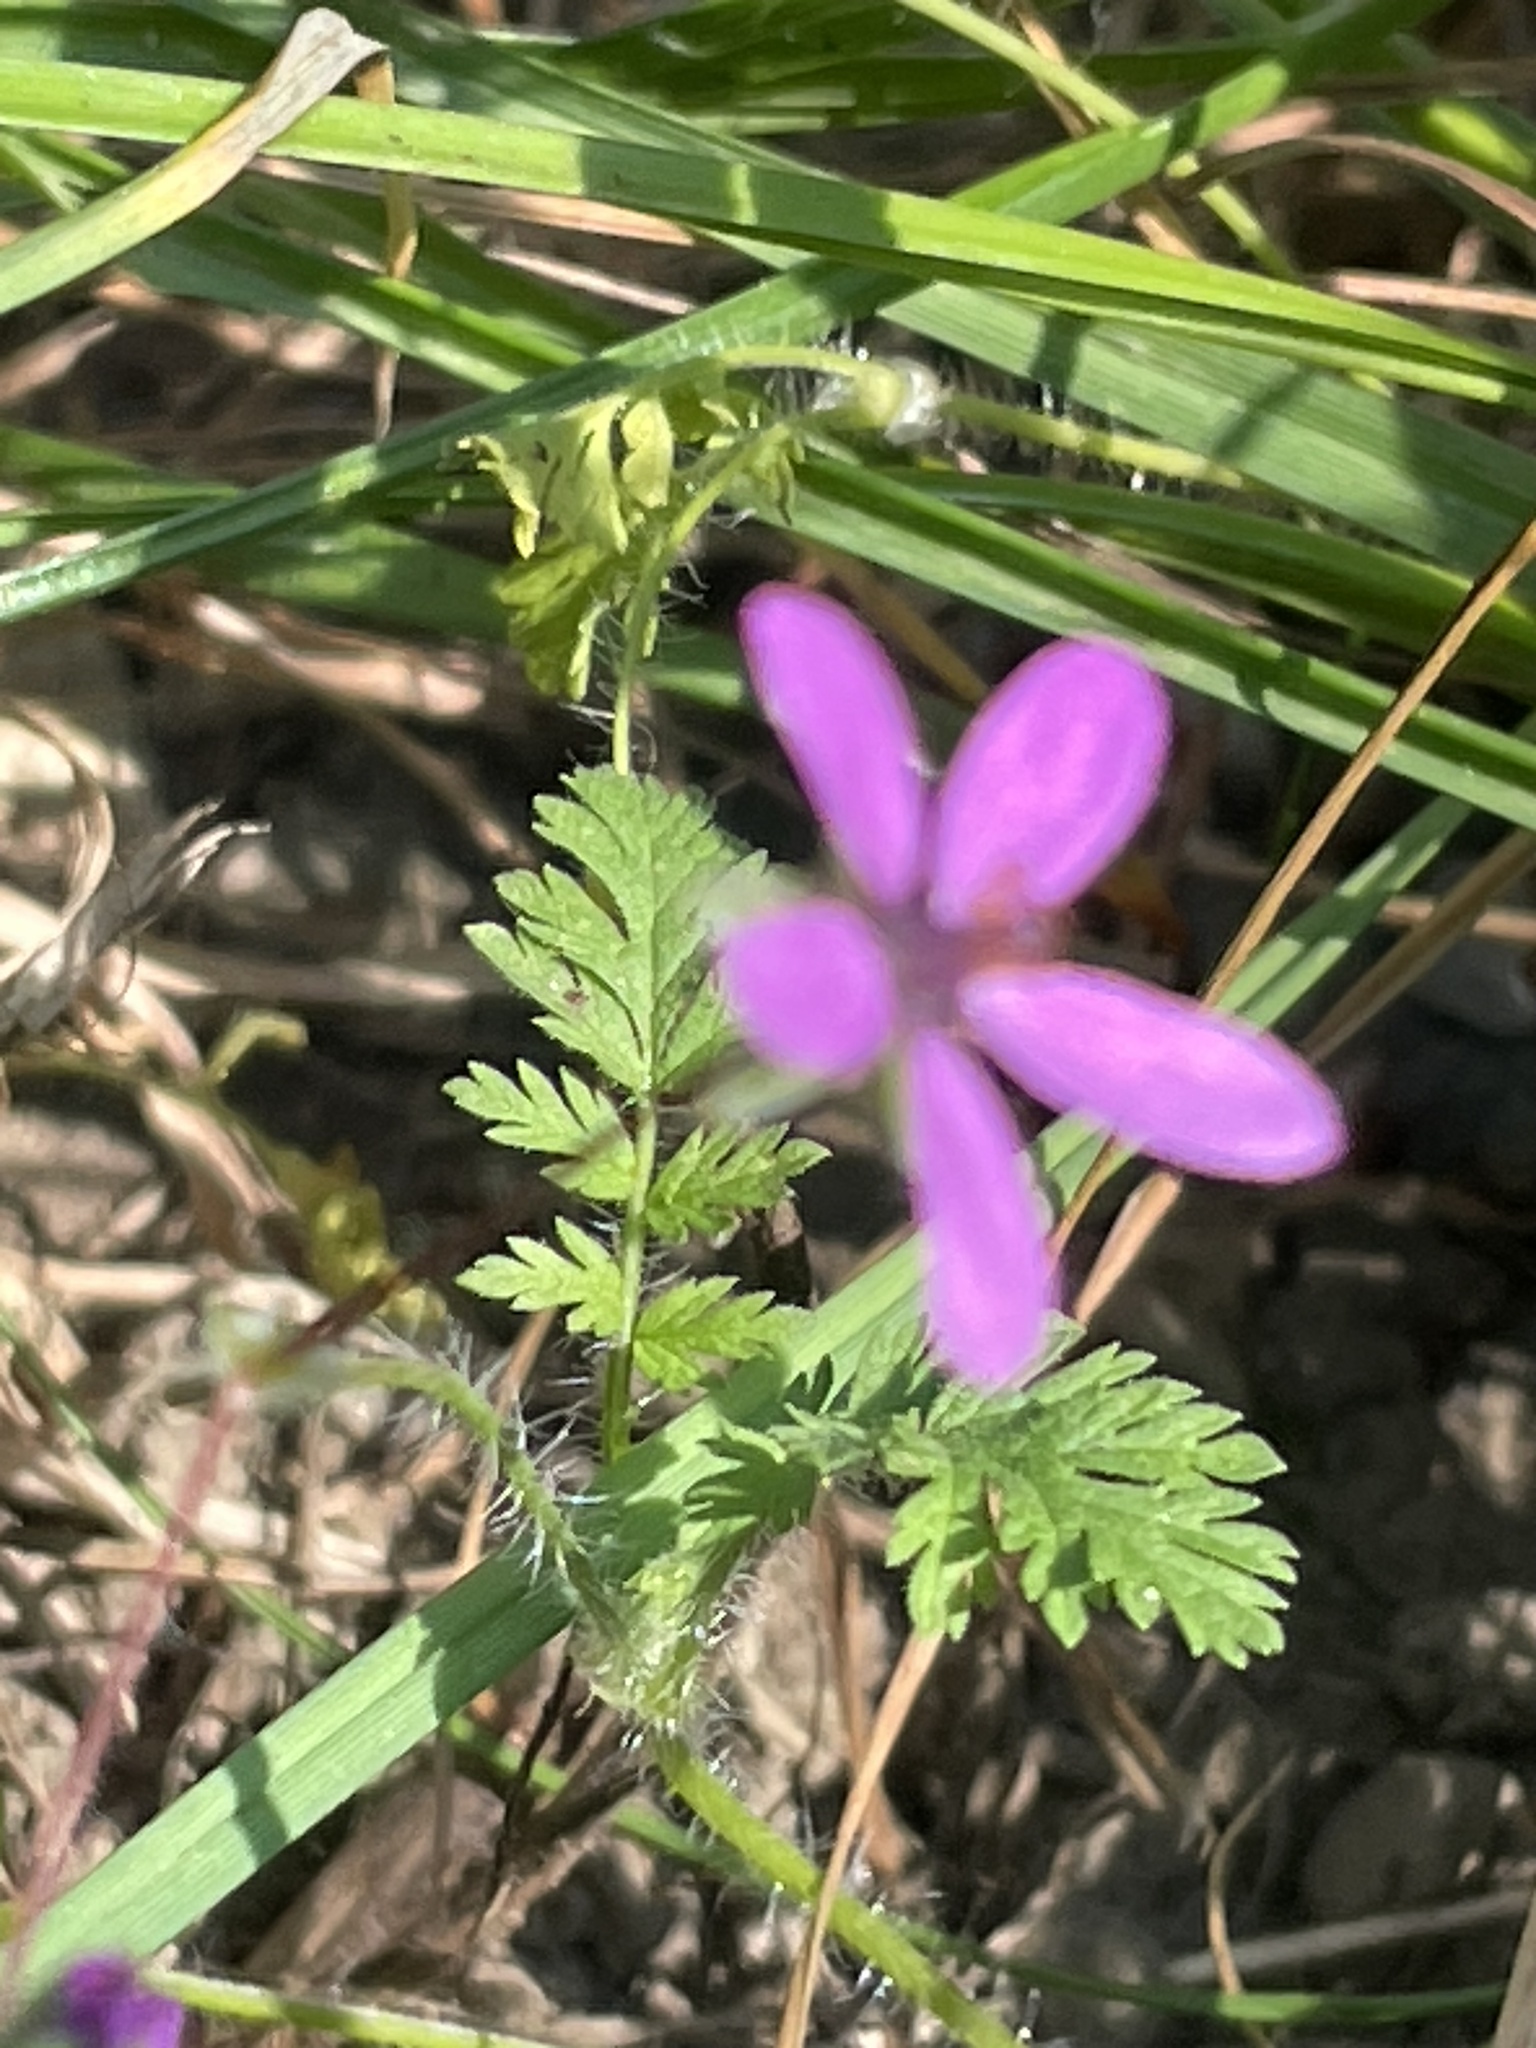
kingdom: Plantae
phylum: Tracheophyta
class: Magnoliopsida
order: Geraniales
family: Geraniaceae
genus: Erodium
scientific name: Erodium cicutarium
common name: Common stork's-bill
